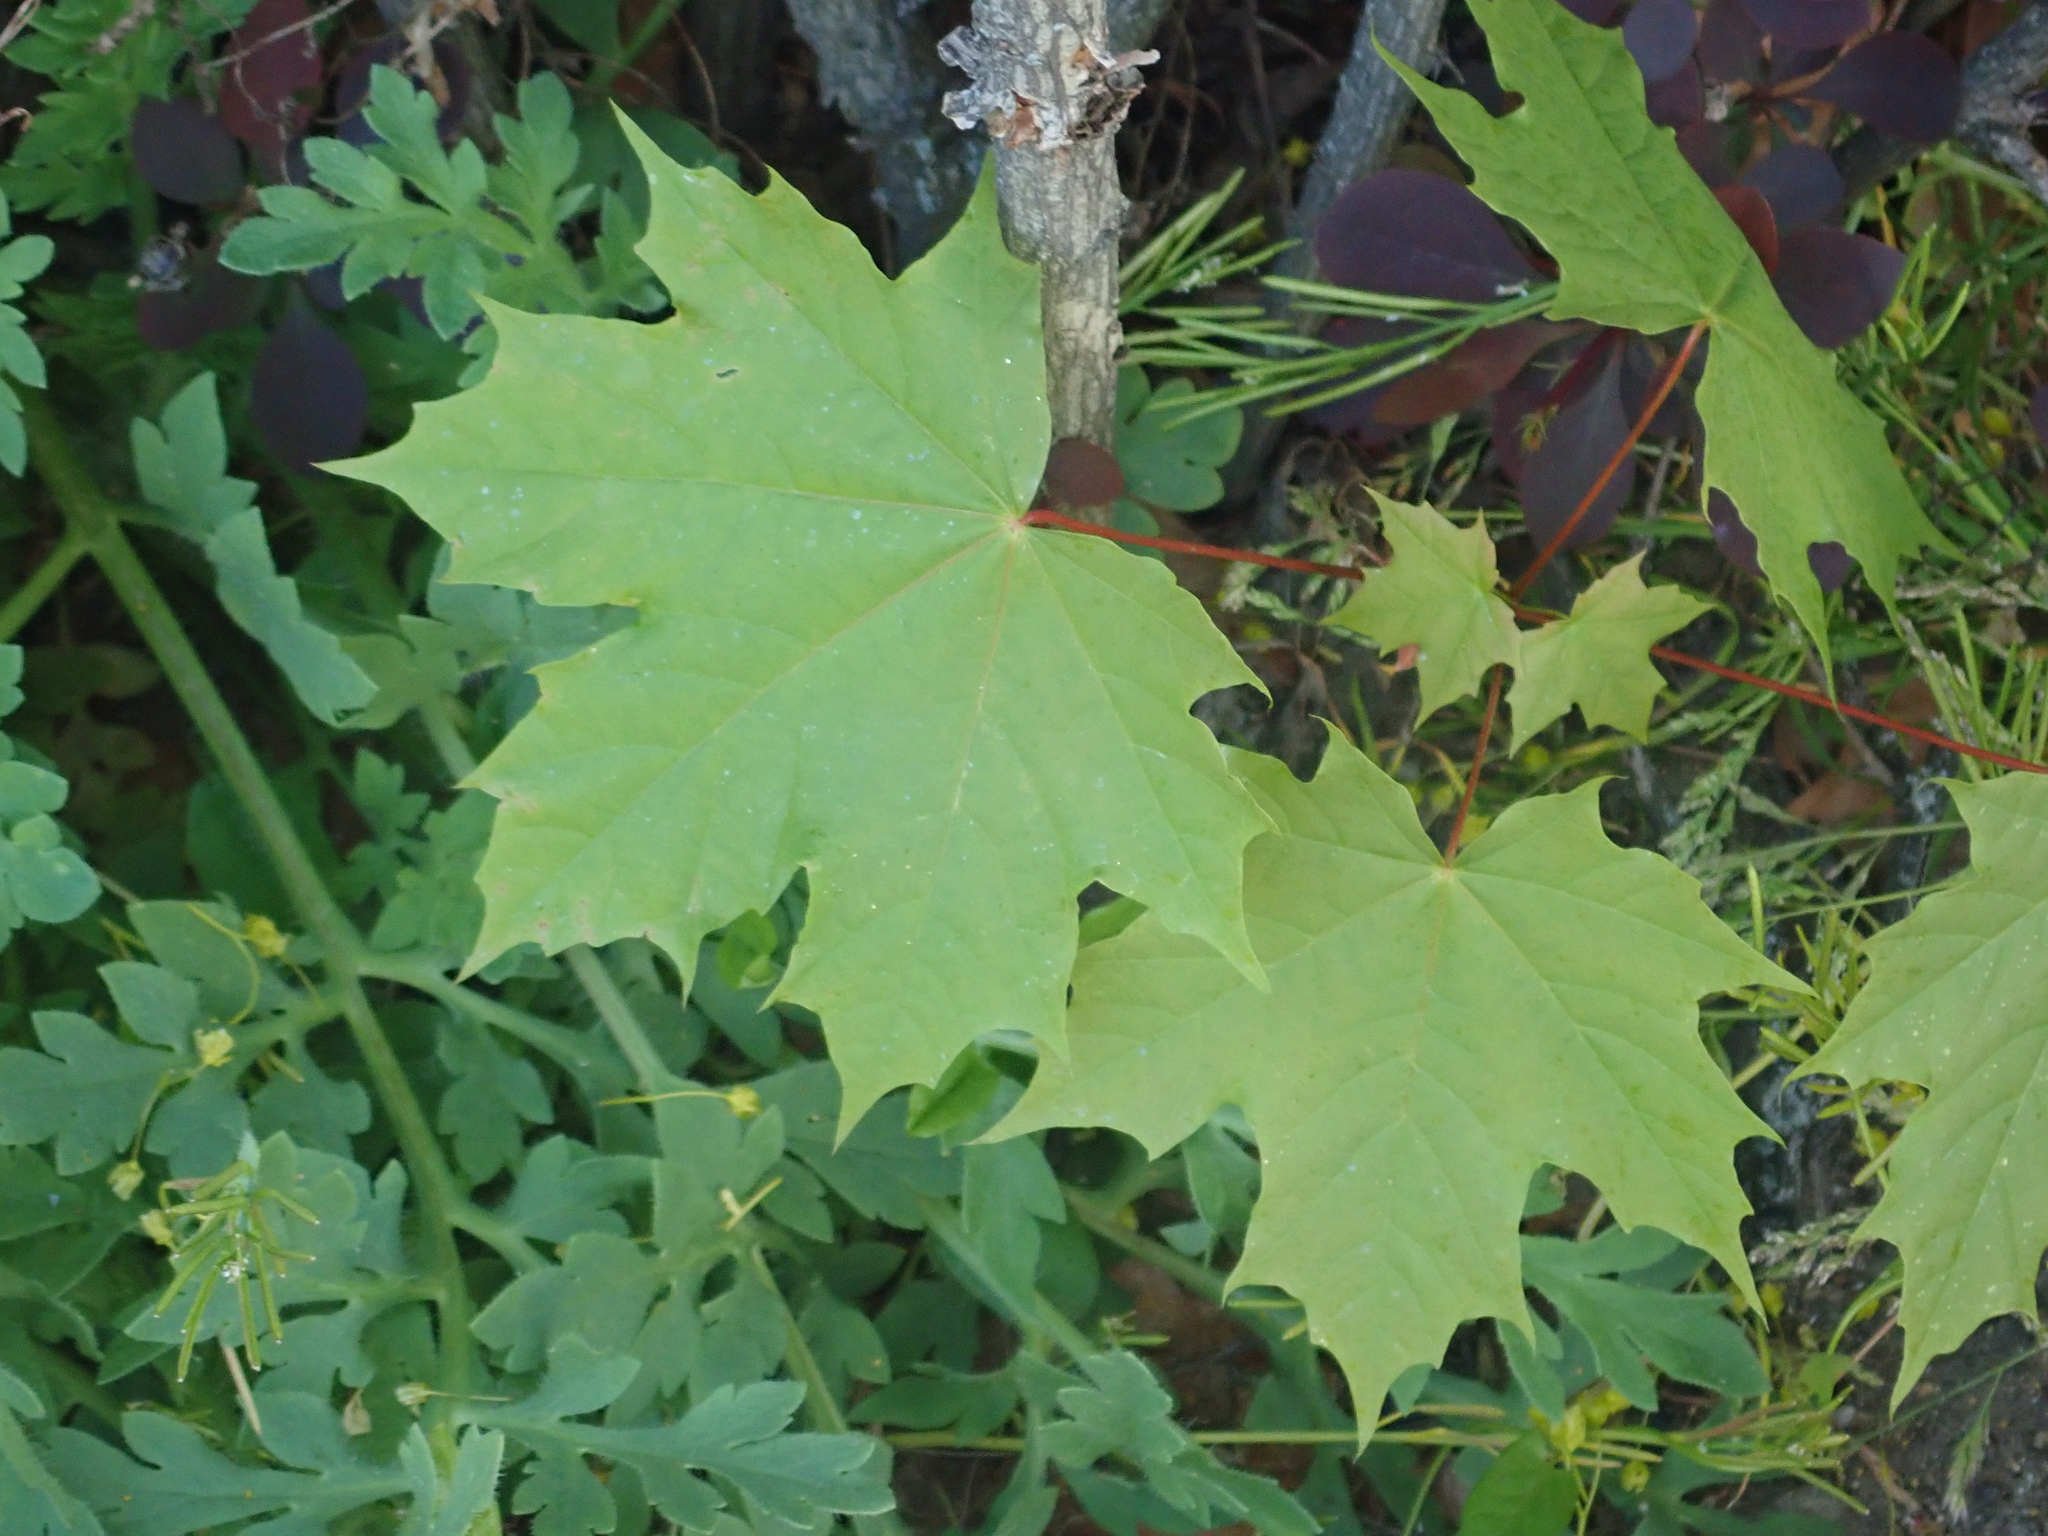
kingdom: Plantae
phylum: Tracheophyta
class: Magnoliopsida
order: Sapindales
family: Sapindaceae
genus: Acer
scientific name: Acer platanoides
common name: Norway maple
